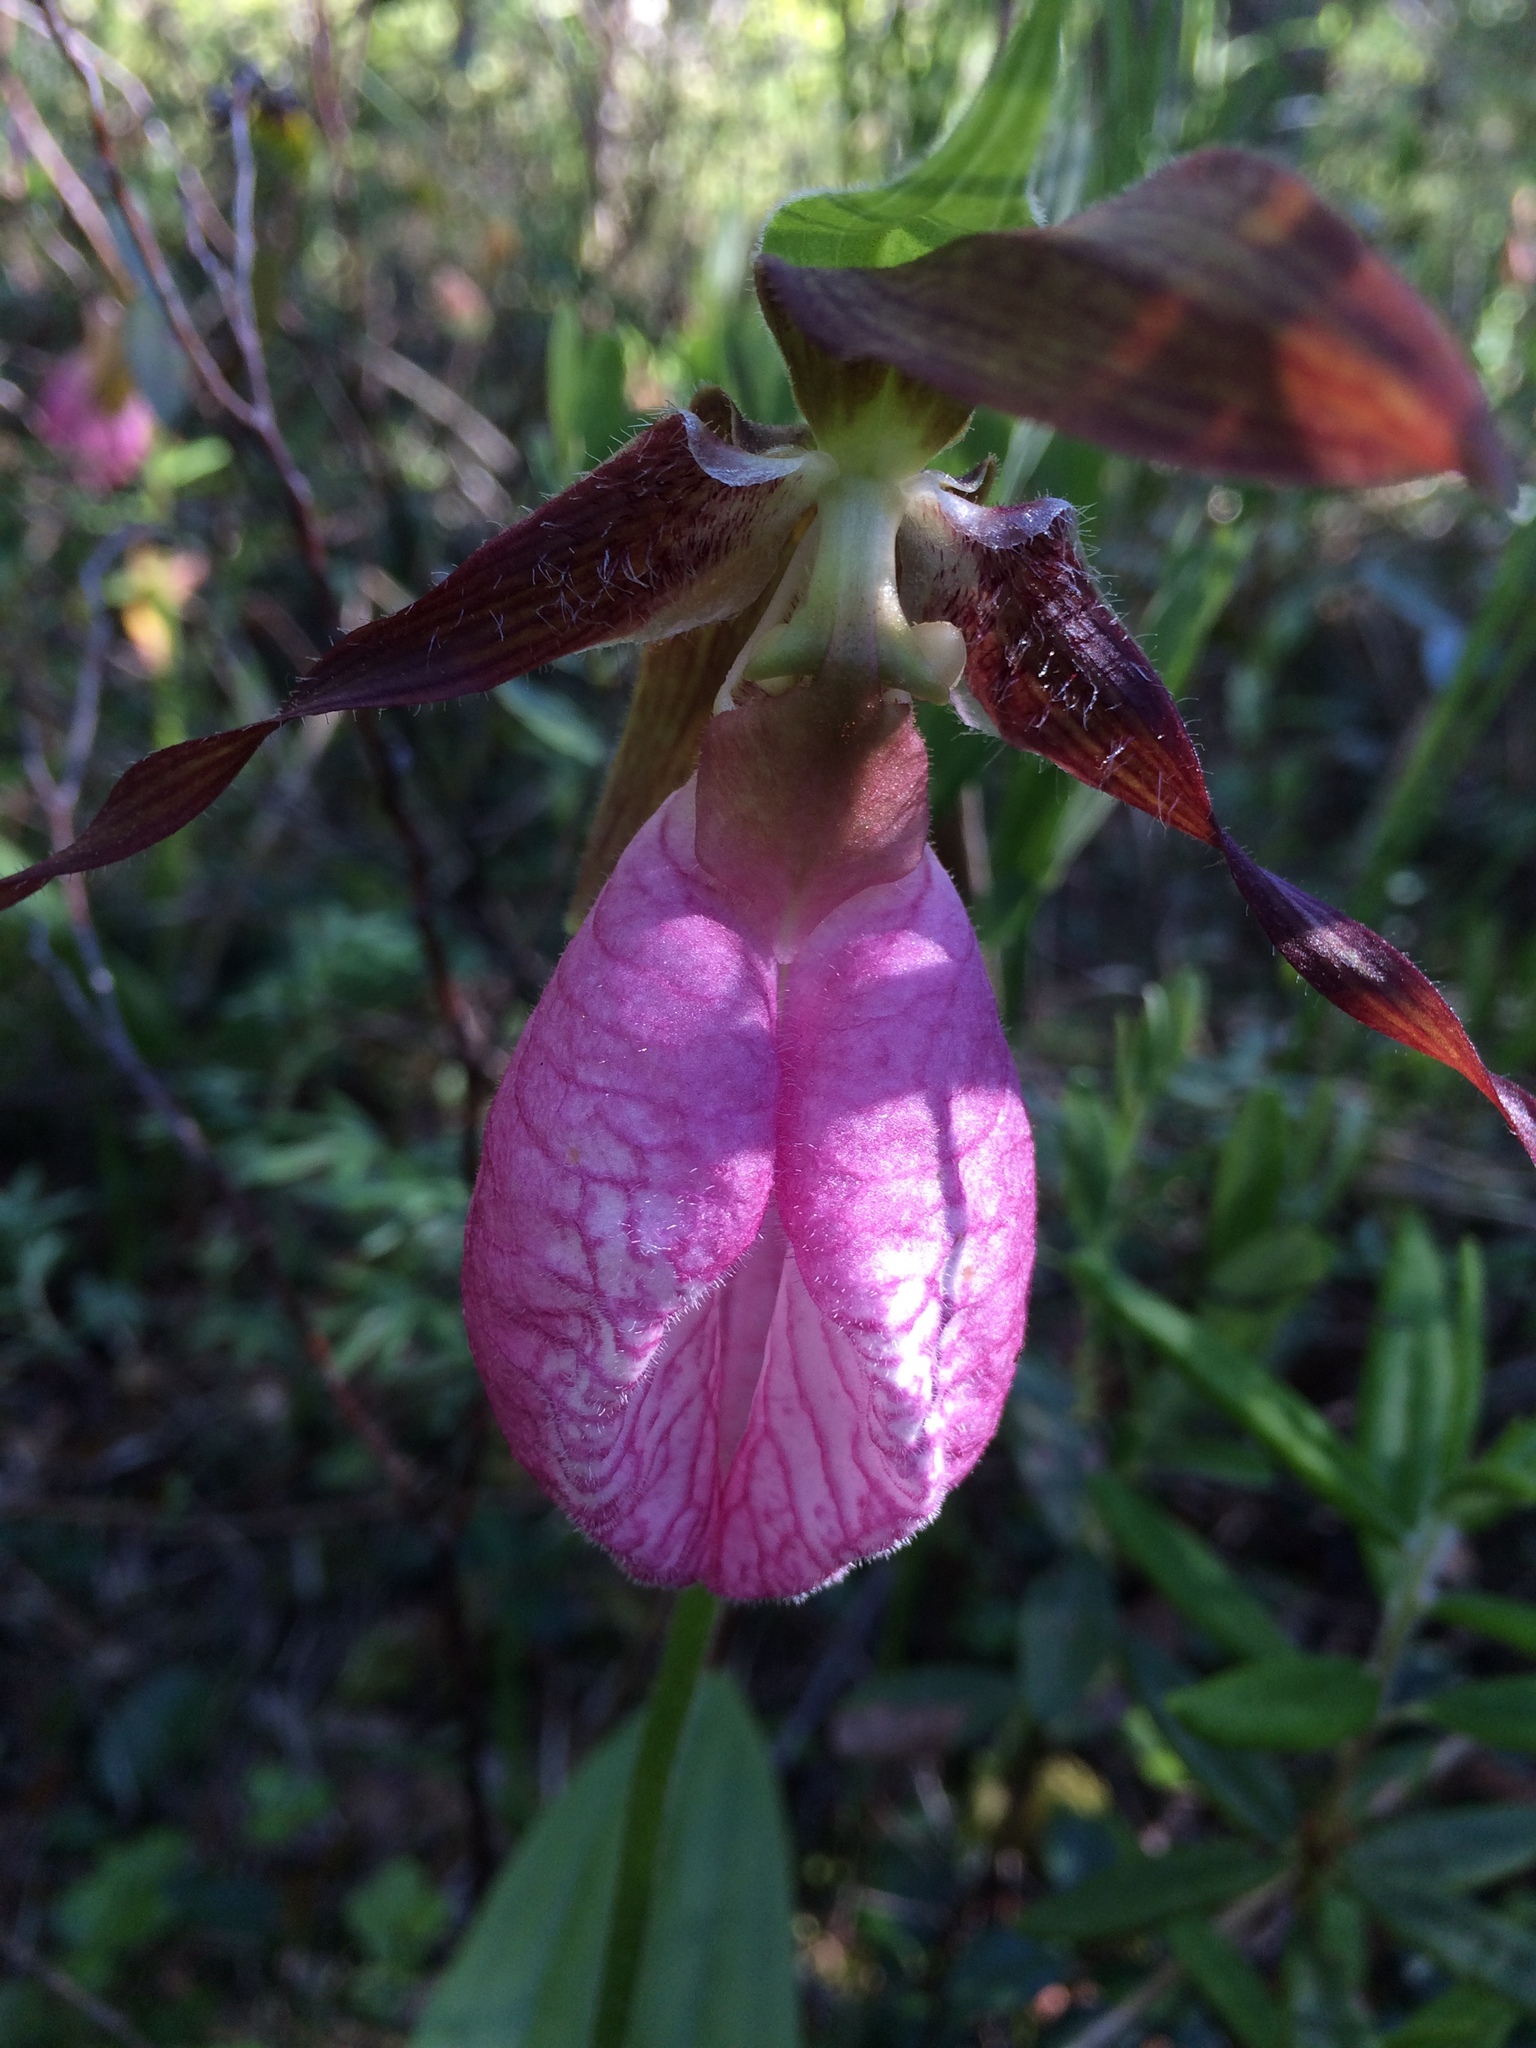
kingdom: Plantae
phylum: Tracheophyta
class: Liliopsida
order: Asparagales
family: Orchidaceae
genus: Cypripedium
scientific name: Cypripedium acaule
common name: Pink lady's-slipper
